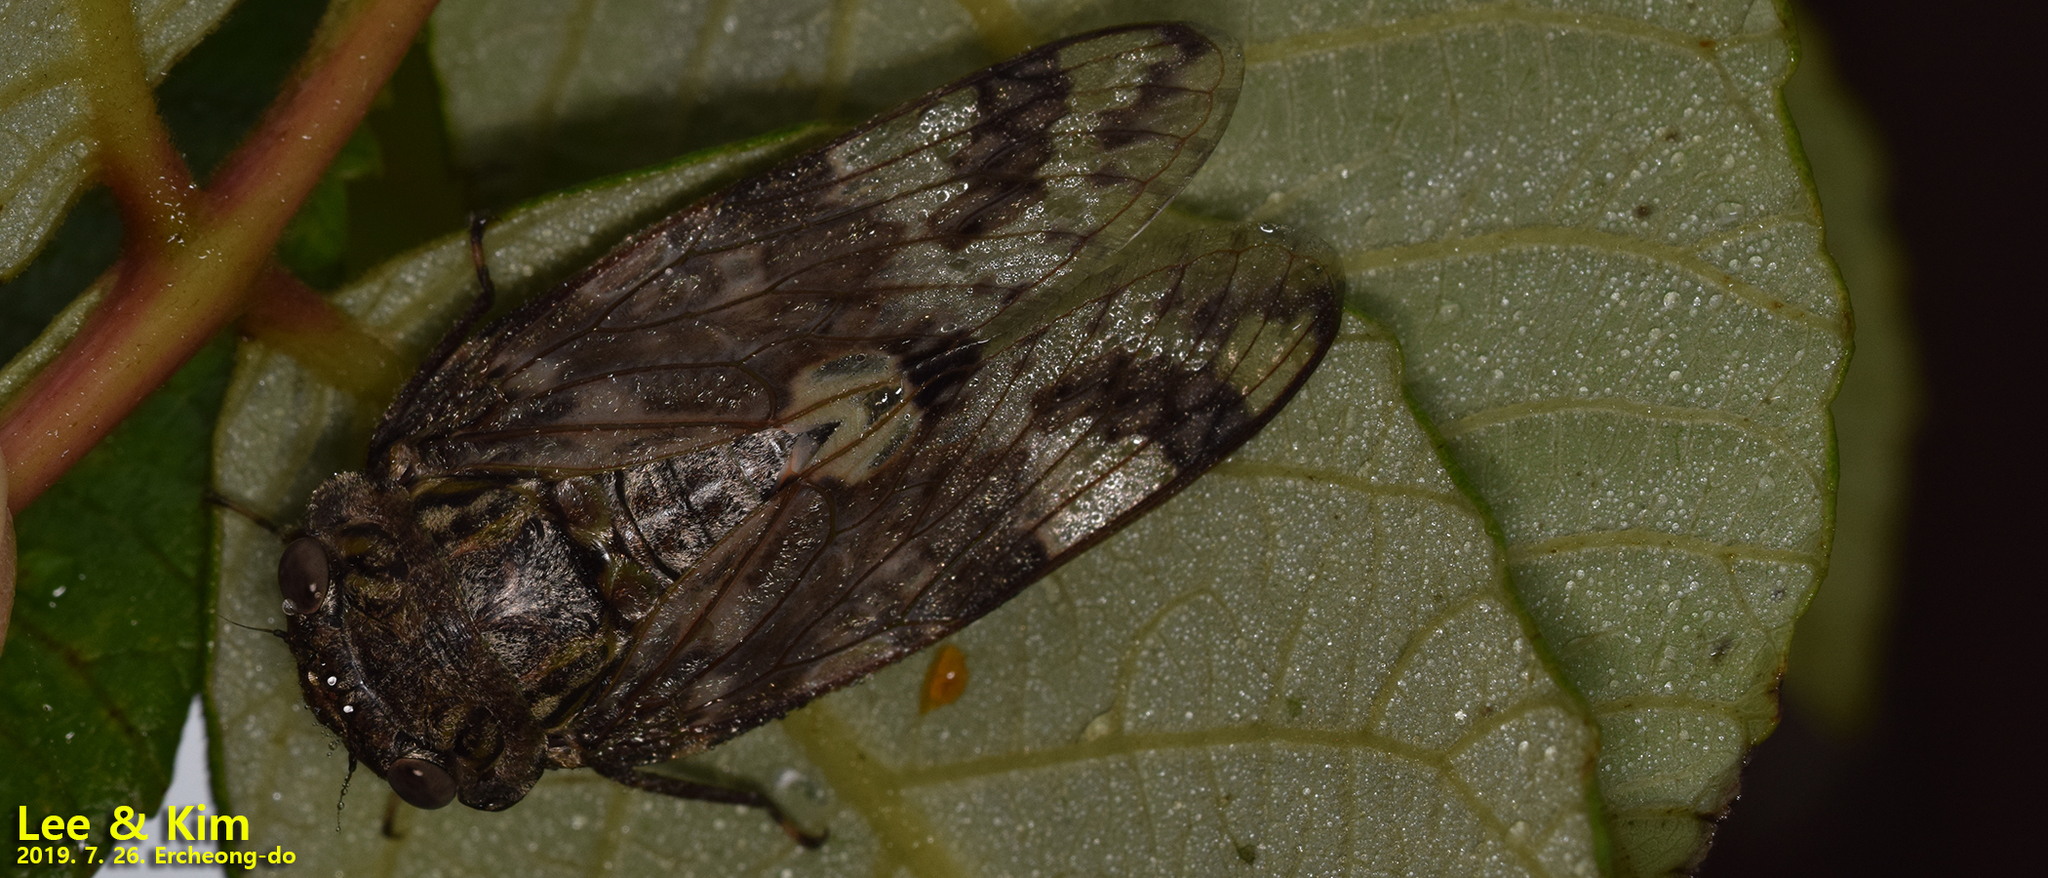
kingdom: Animalia
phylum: Arthropoda
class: Insecta
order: Hemiptera
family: Cicadidae
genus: Platypleura
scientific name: Platypleura kaempferi
